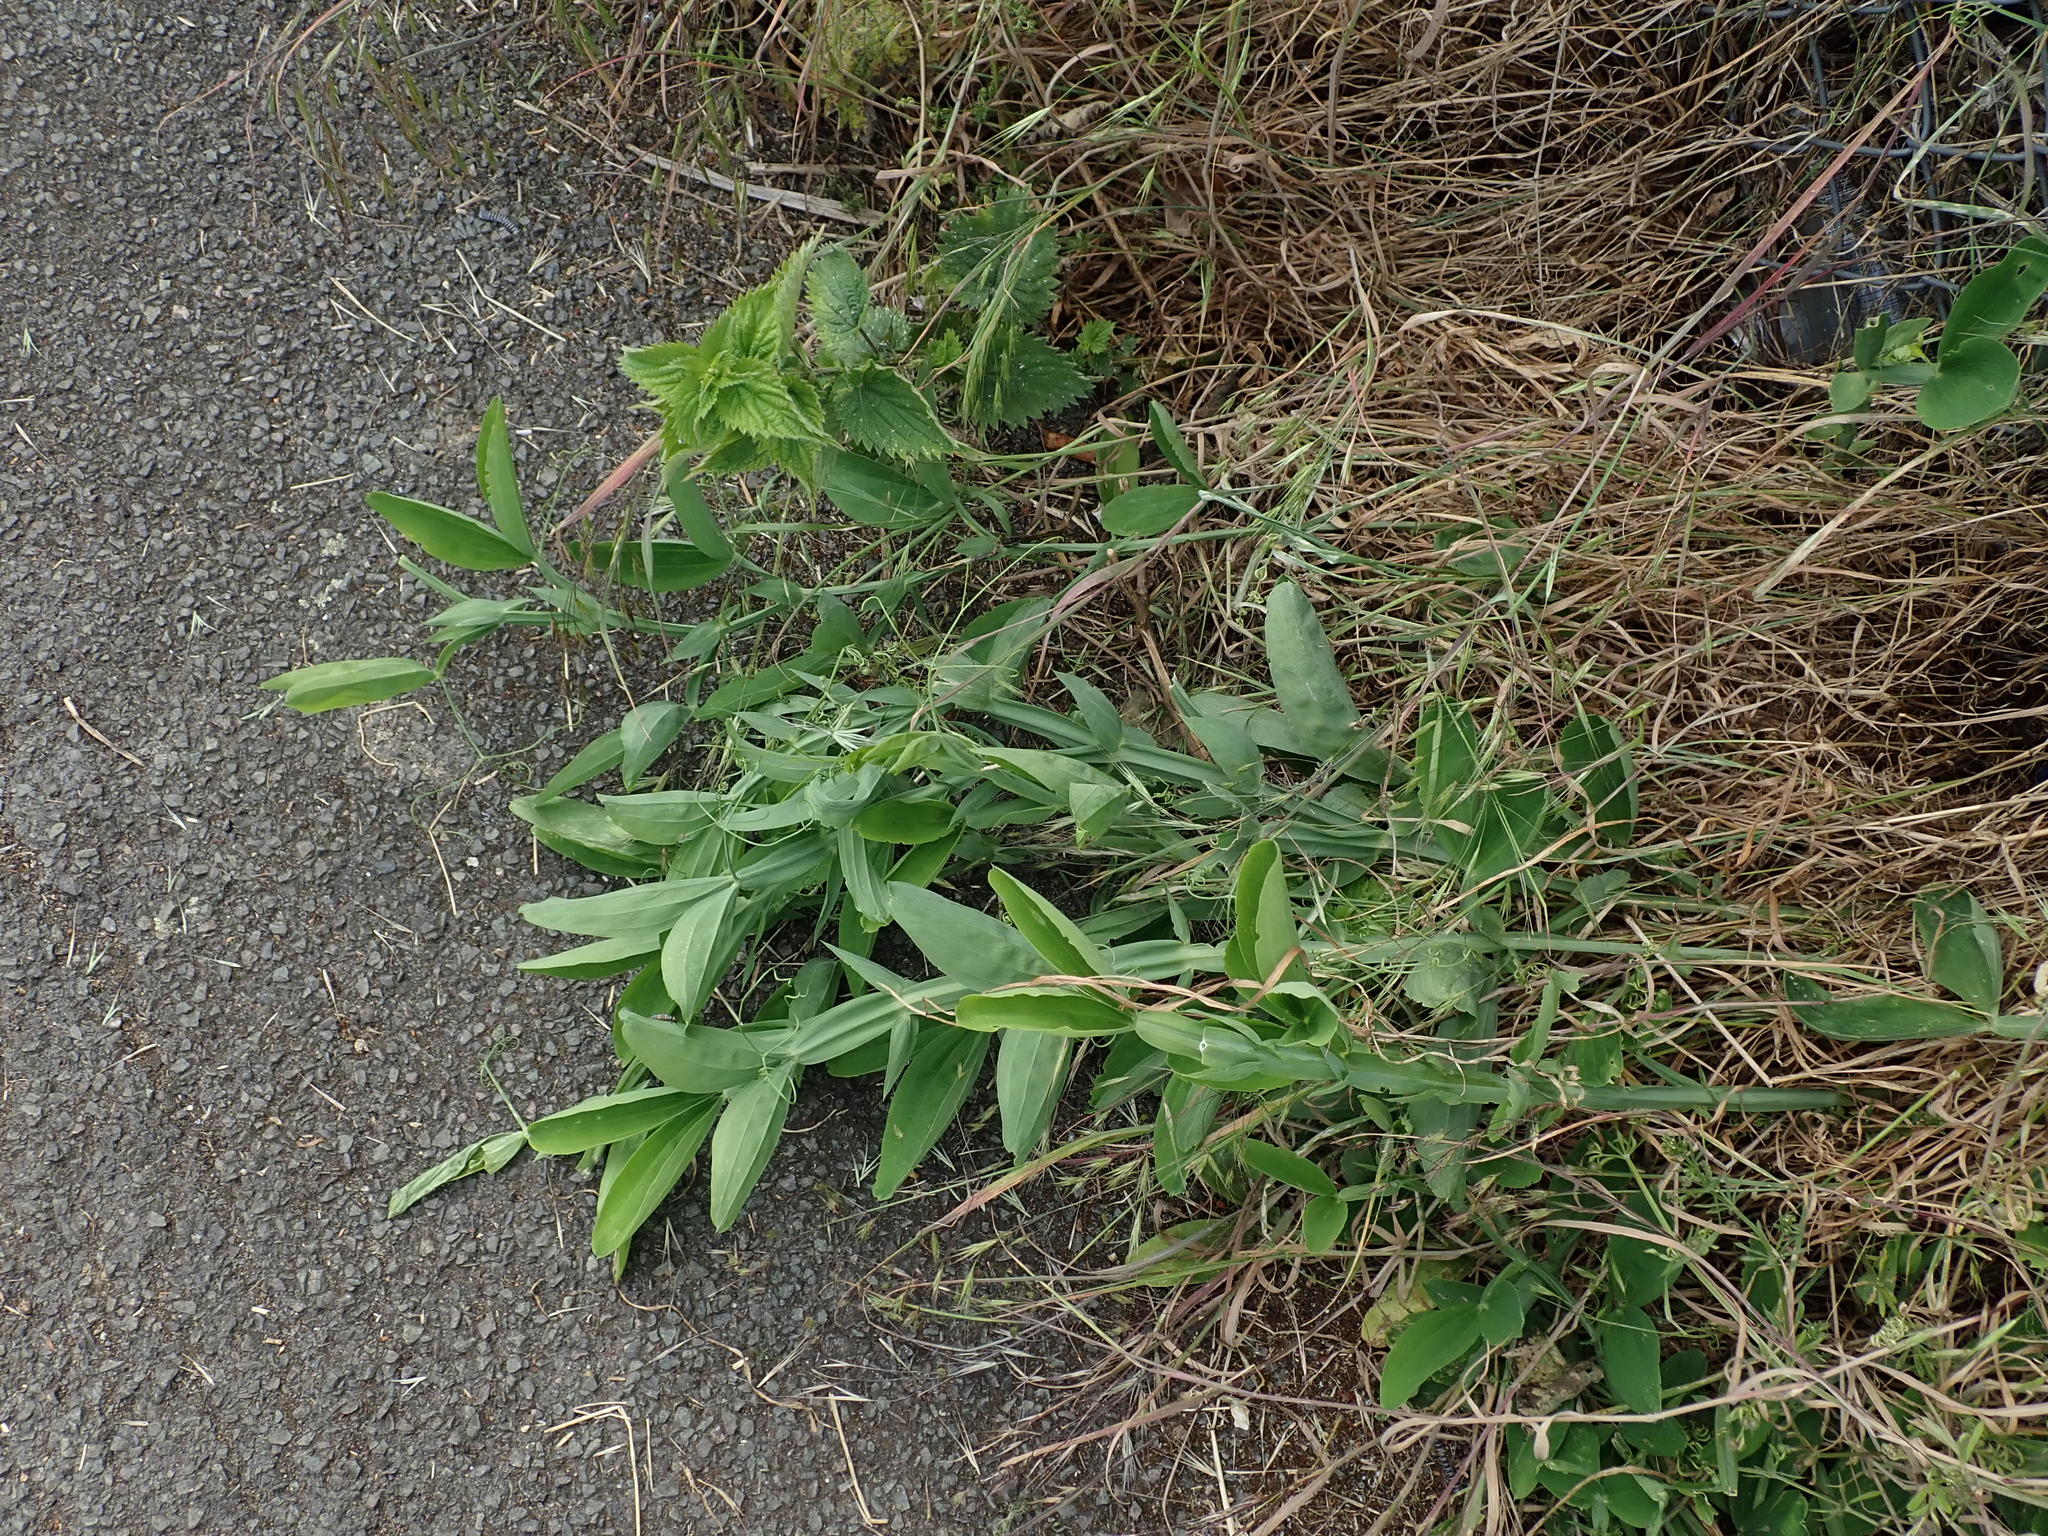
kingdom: Plantae
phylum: Tracheophyta
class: Magnoliopsida
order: Fabales
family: Fabaceae
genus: Lathyrus
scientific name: Lathyrus latifolius
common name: Perennial pea
